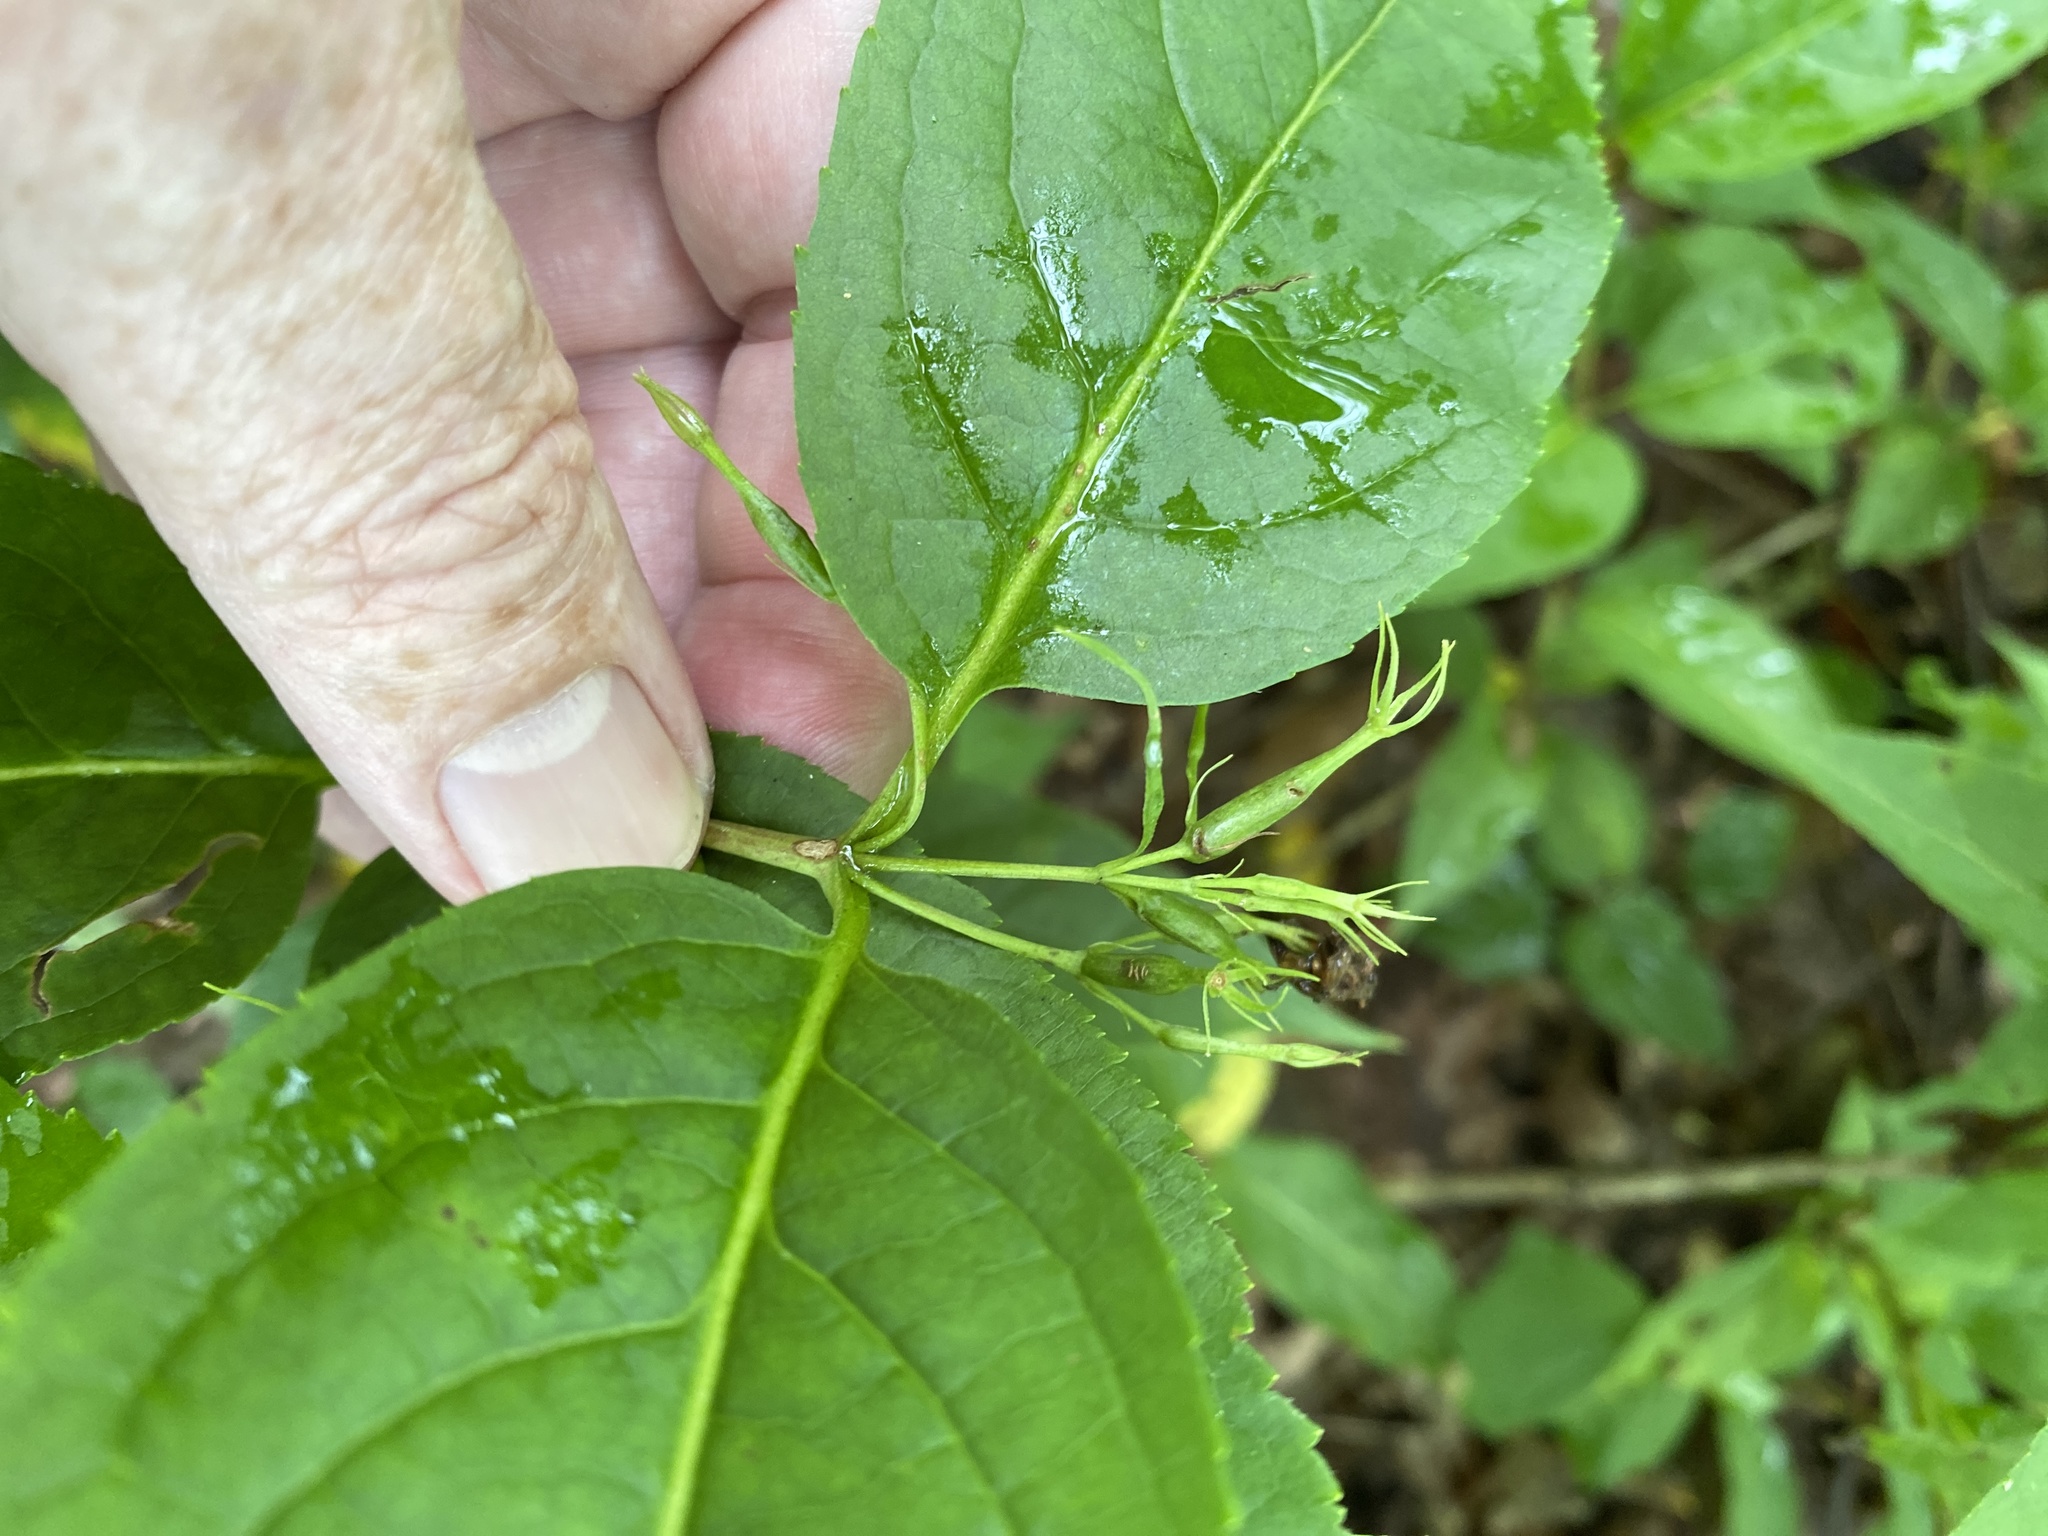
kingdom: Plantae
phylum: Tracheophyta
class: Magnoliopsida
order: Dipsacales
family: Caprifoliaceae
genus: Diervilla
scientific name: Diervilla lonicera
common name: Bush-honeysuckle
